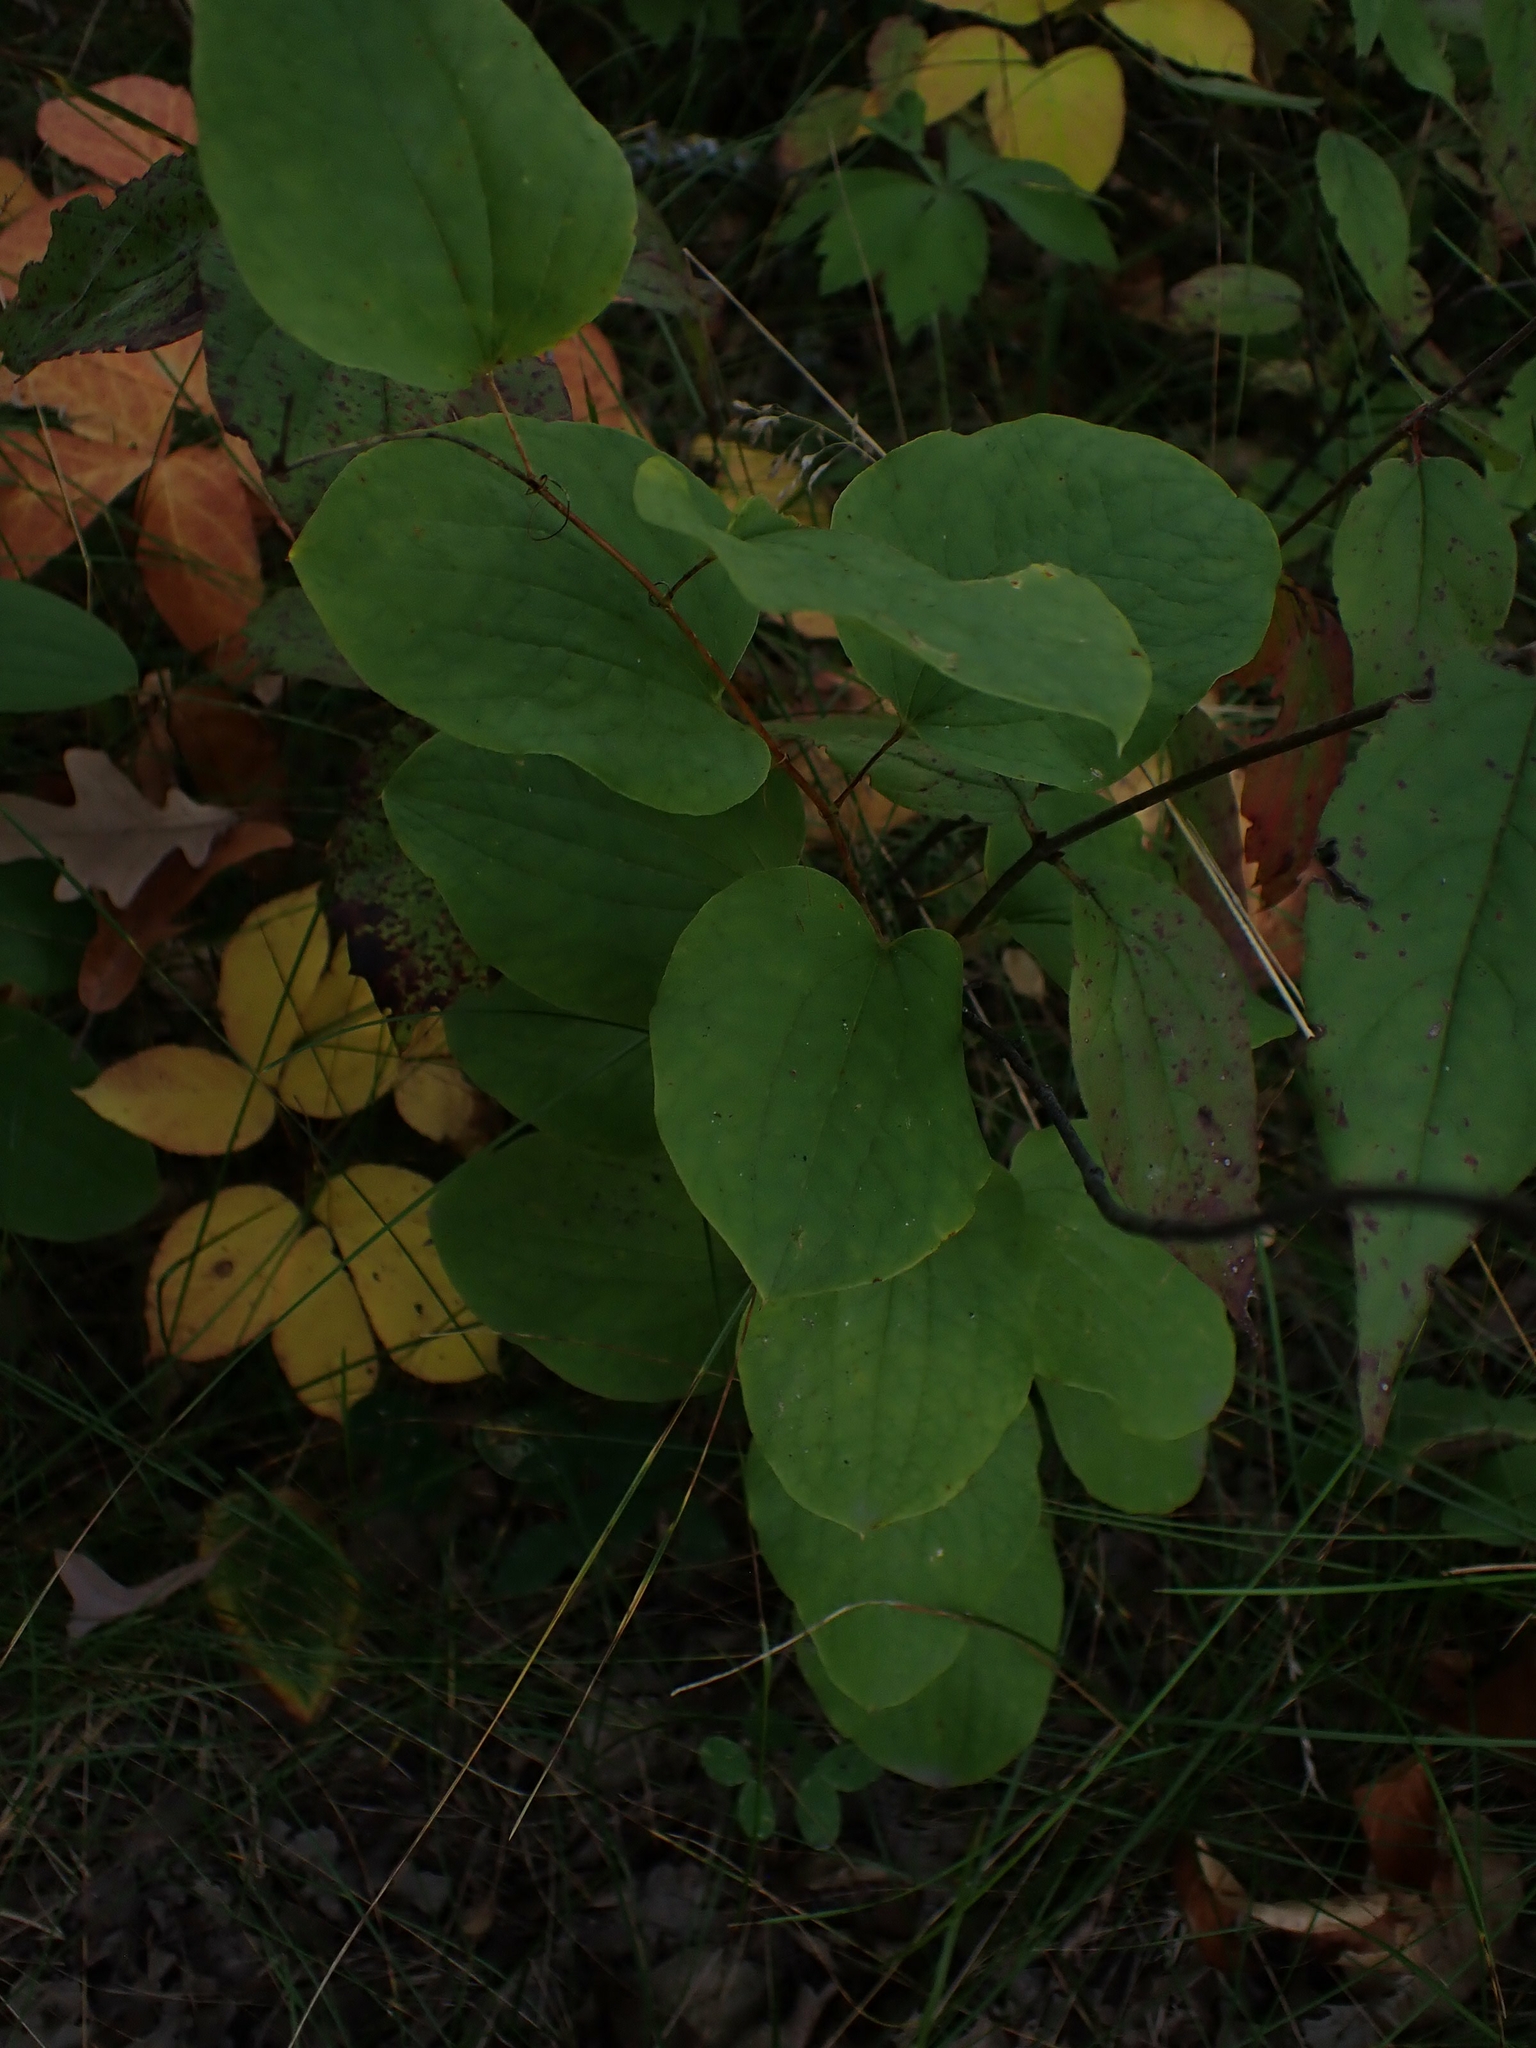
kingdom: Plantae
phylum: Tracheophyta
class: Liliopsida
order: Liliales
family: Smilacaceae
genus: Smilax
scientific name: Smilax lasioneura
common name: Blue ridge carrionflower
